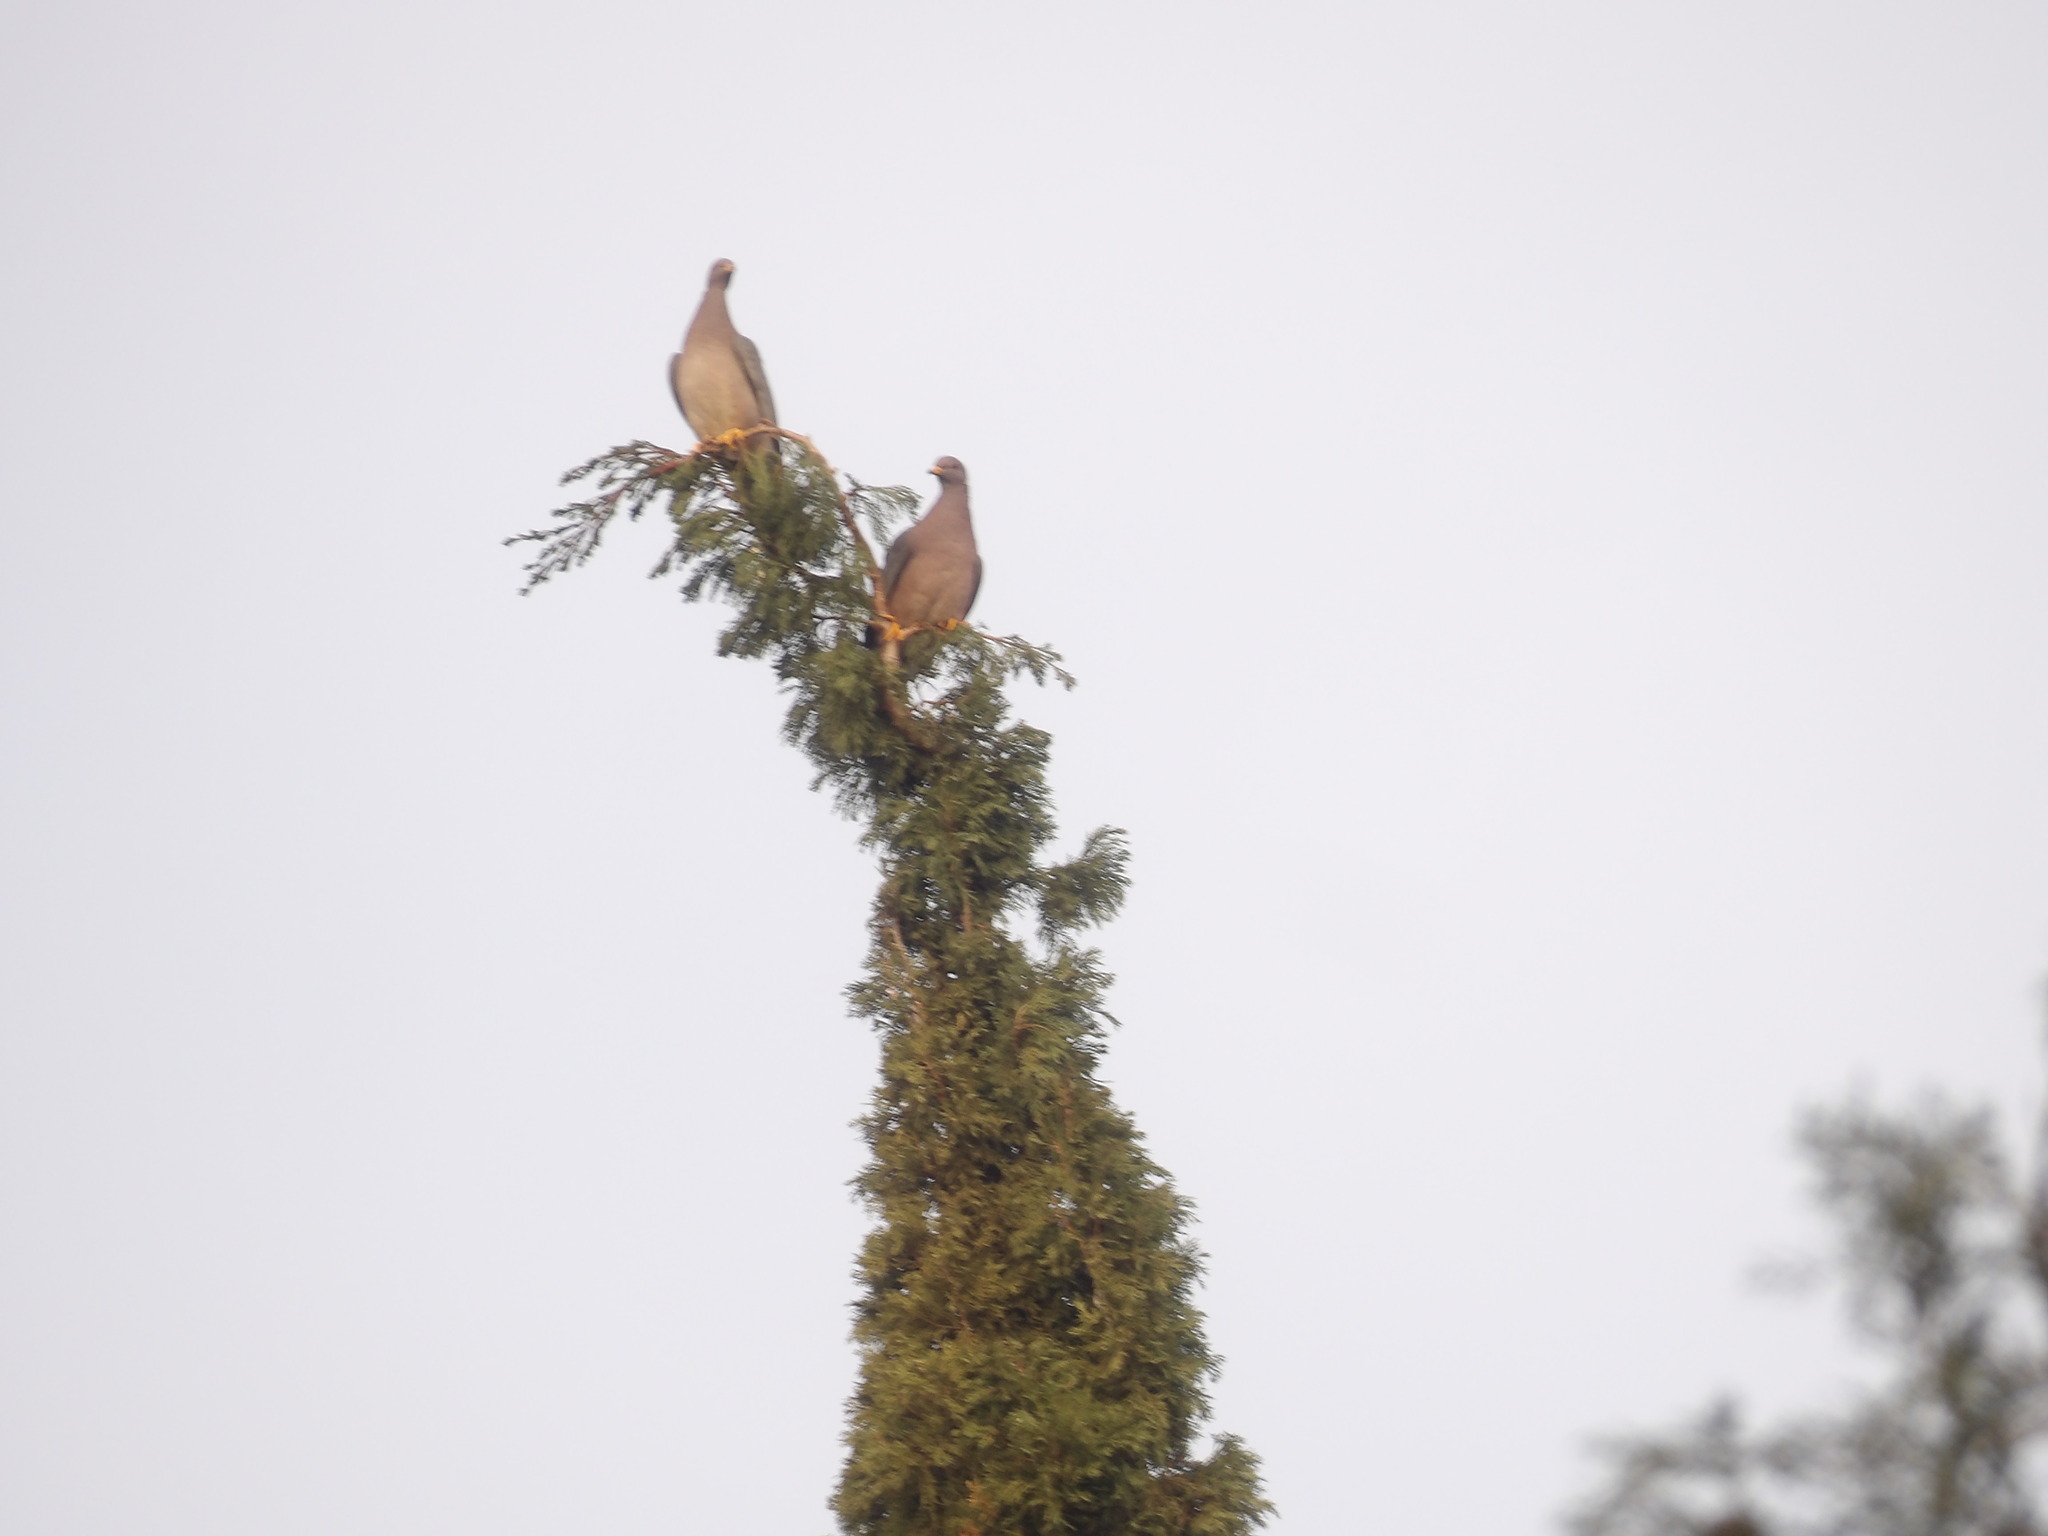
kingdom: Animalia
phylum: Chordata
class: Aves
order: Columbiformes
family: Columbidae
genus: Patagioenas
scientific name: Patagioenas fasciata
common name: Band-tailed pigeon
